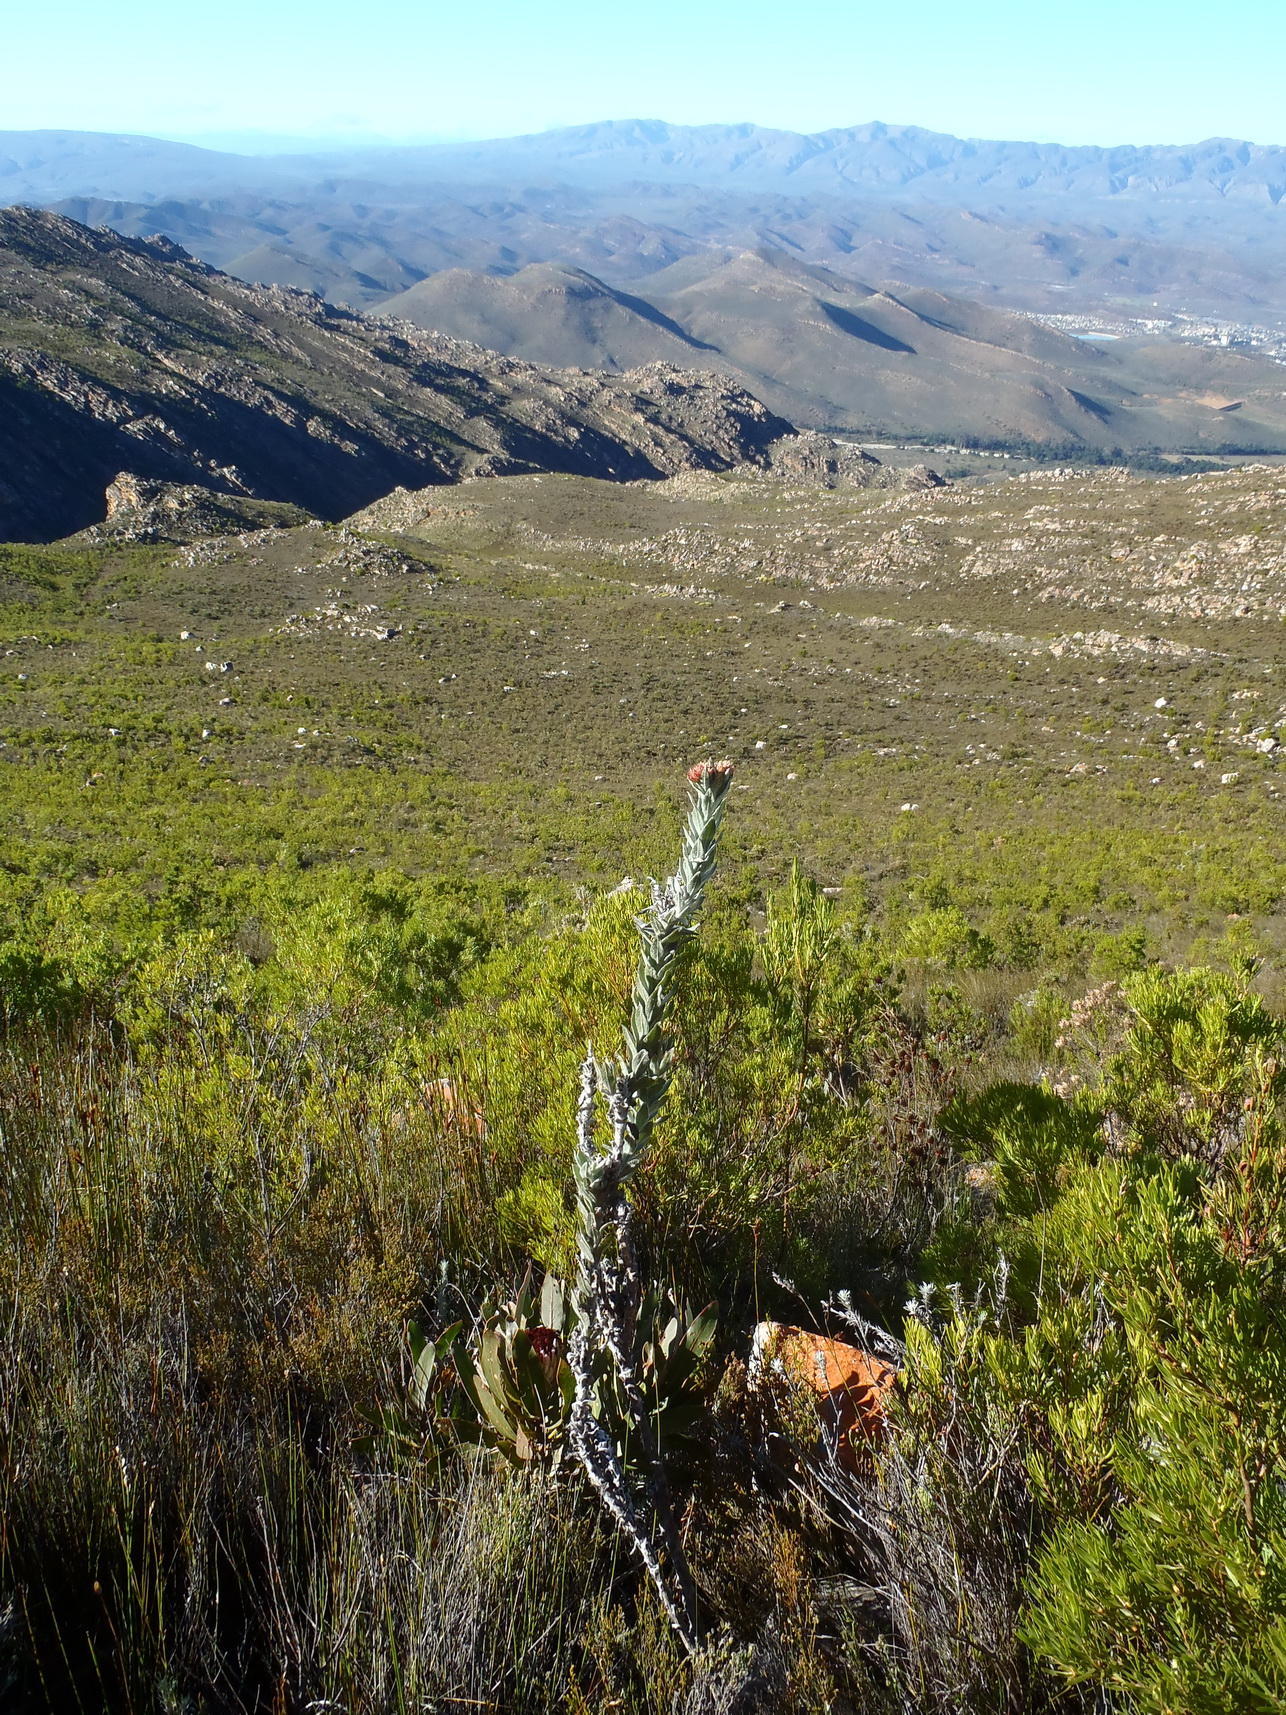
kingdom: Plantae
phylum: Tracheophyta
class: Magnoliopsida
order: Asterales
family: Asteraceae
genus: Syncarpha
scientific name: Syncarpha milleflora
